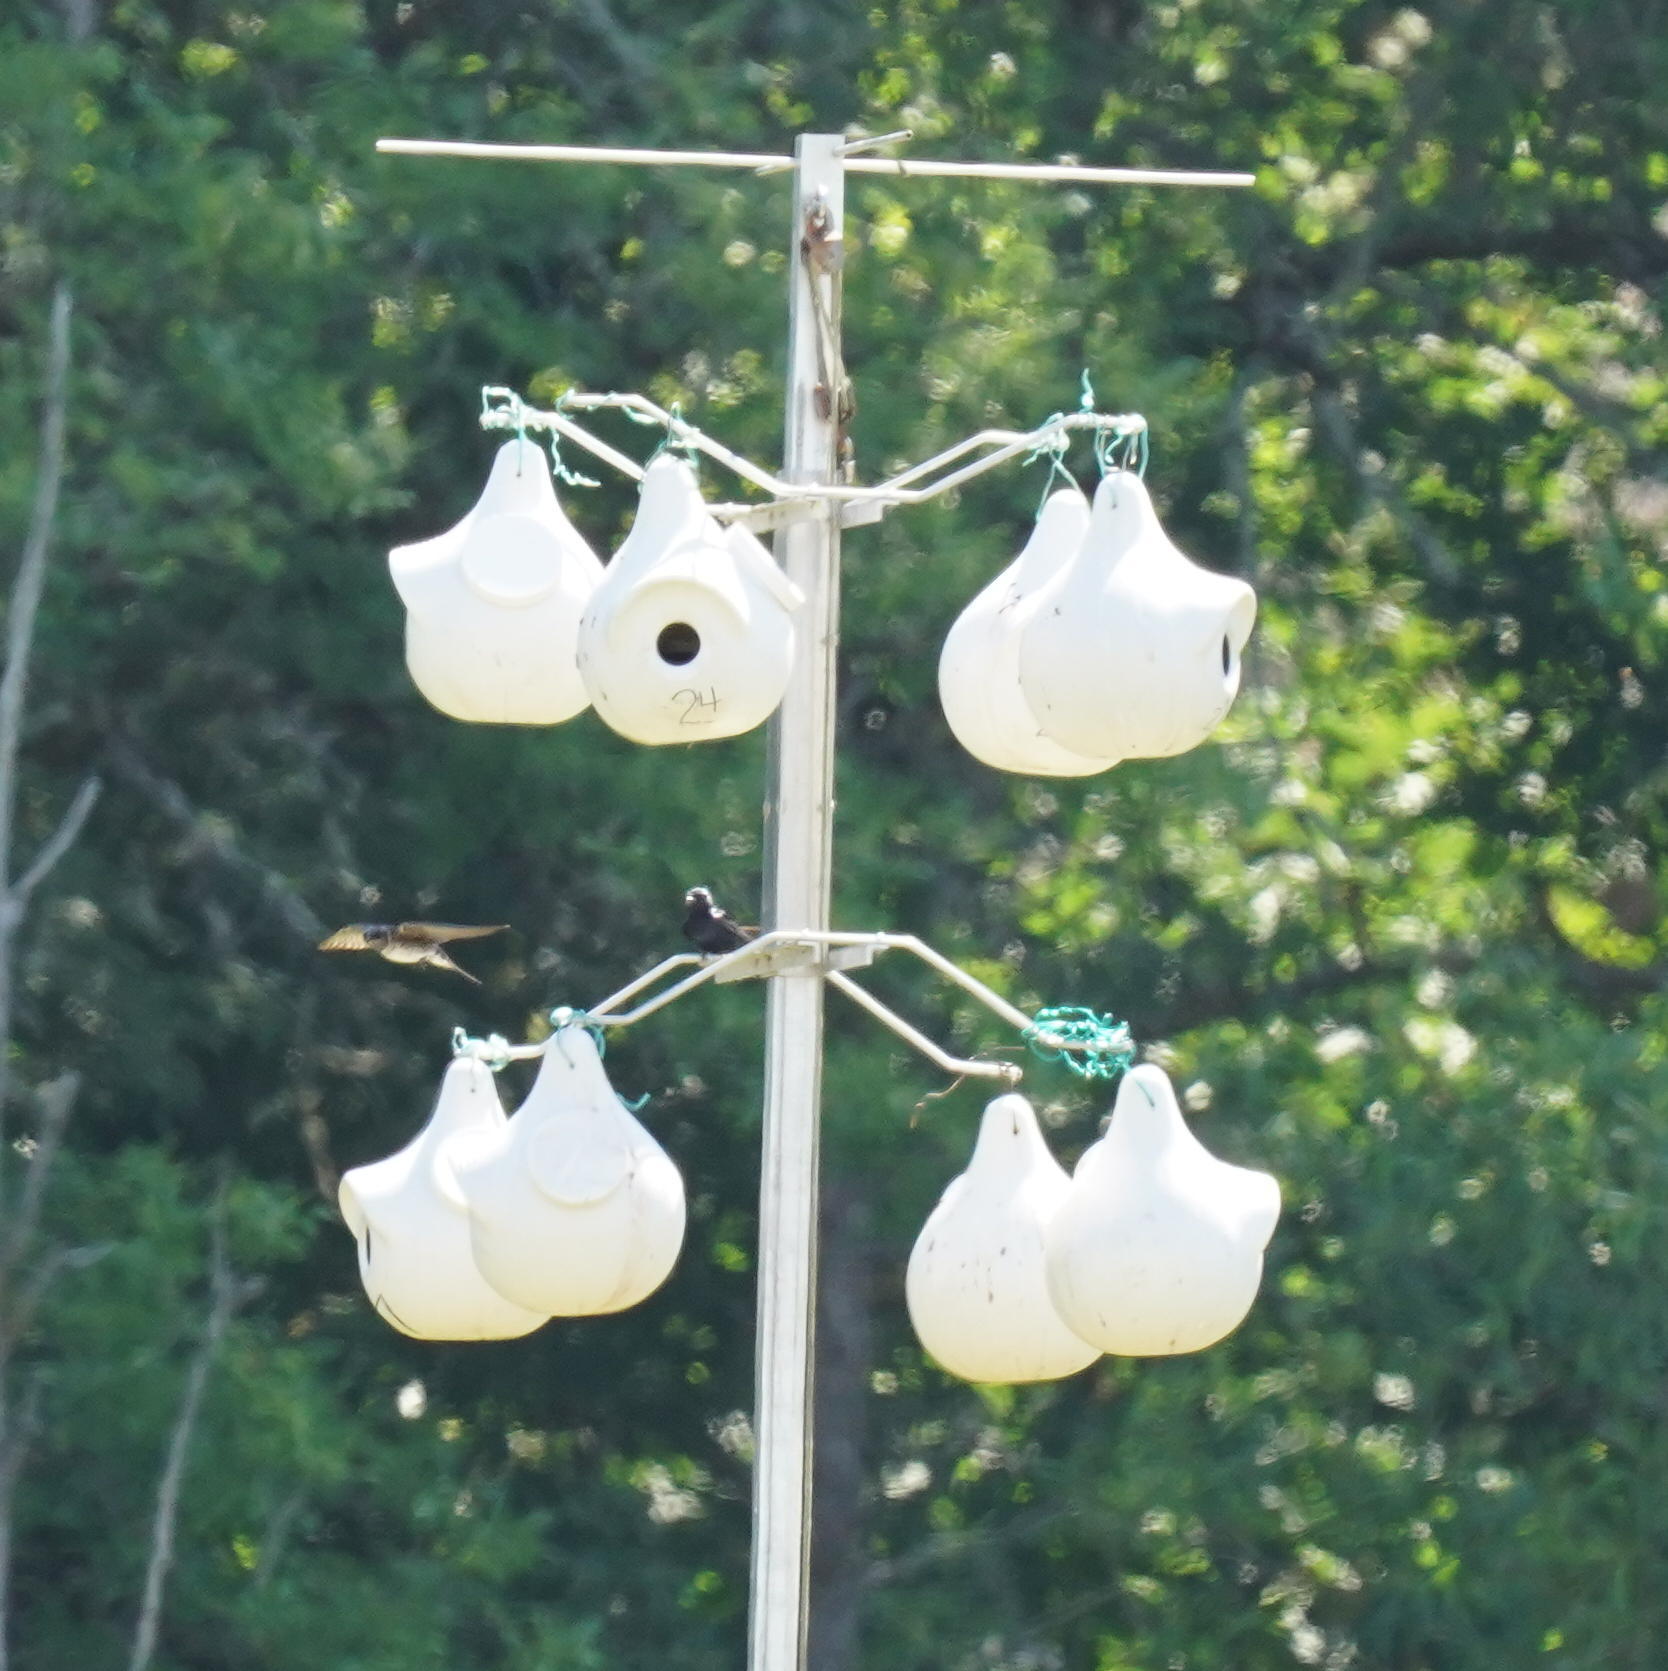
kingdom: Animalia
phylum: Chordata
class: Aves
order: Passeriformes
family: Hirundinidae
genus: Progne
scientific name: Progne subis
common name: Purple martin
